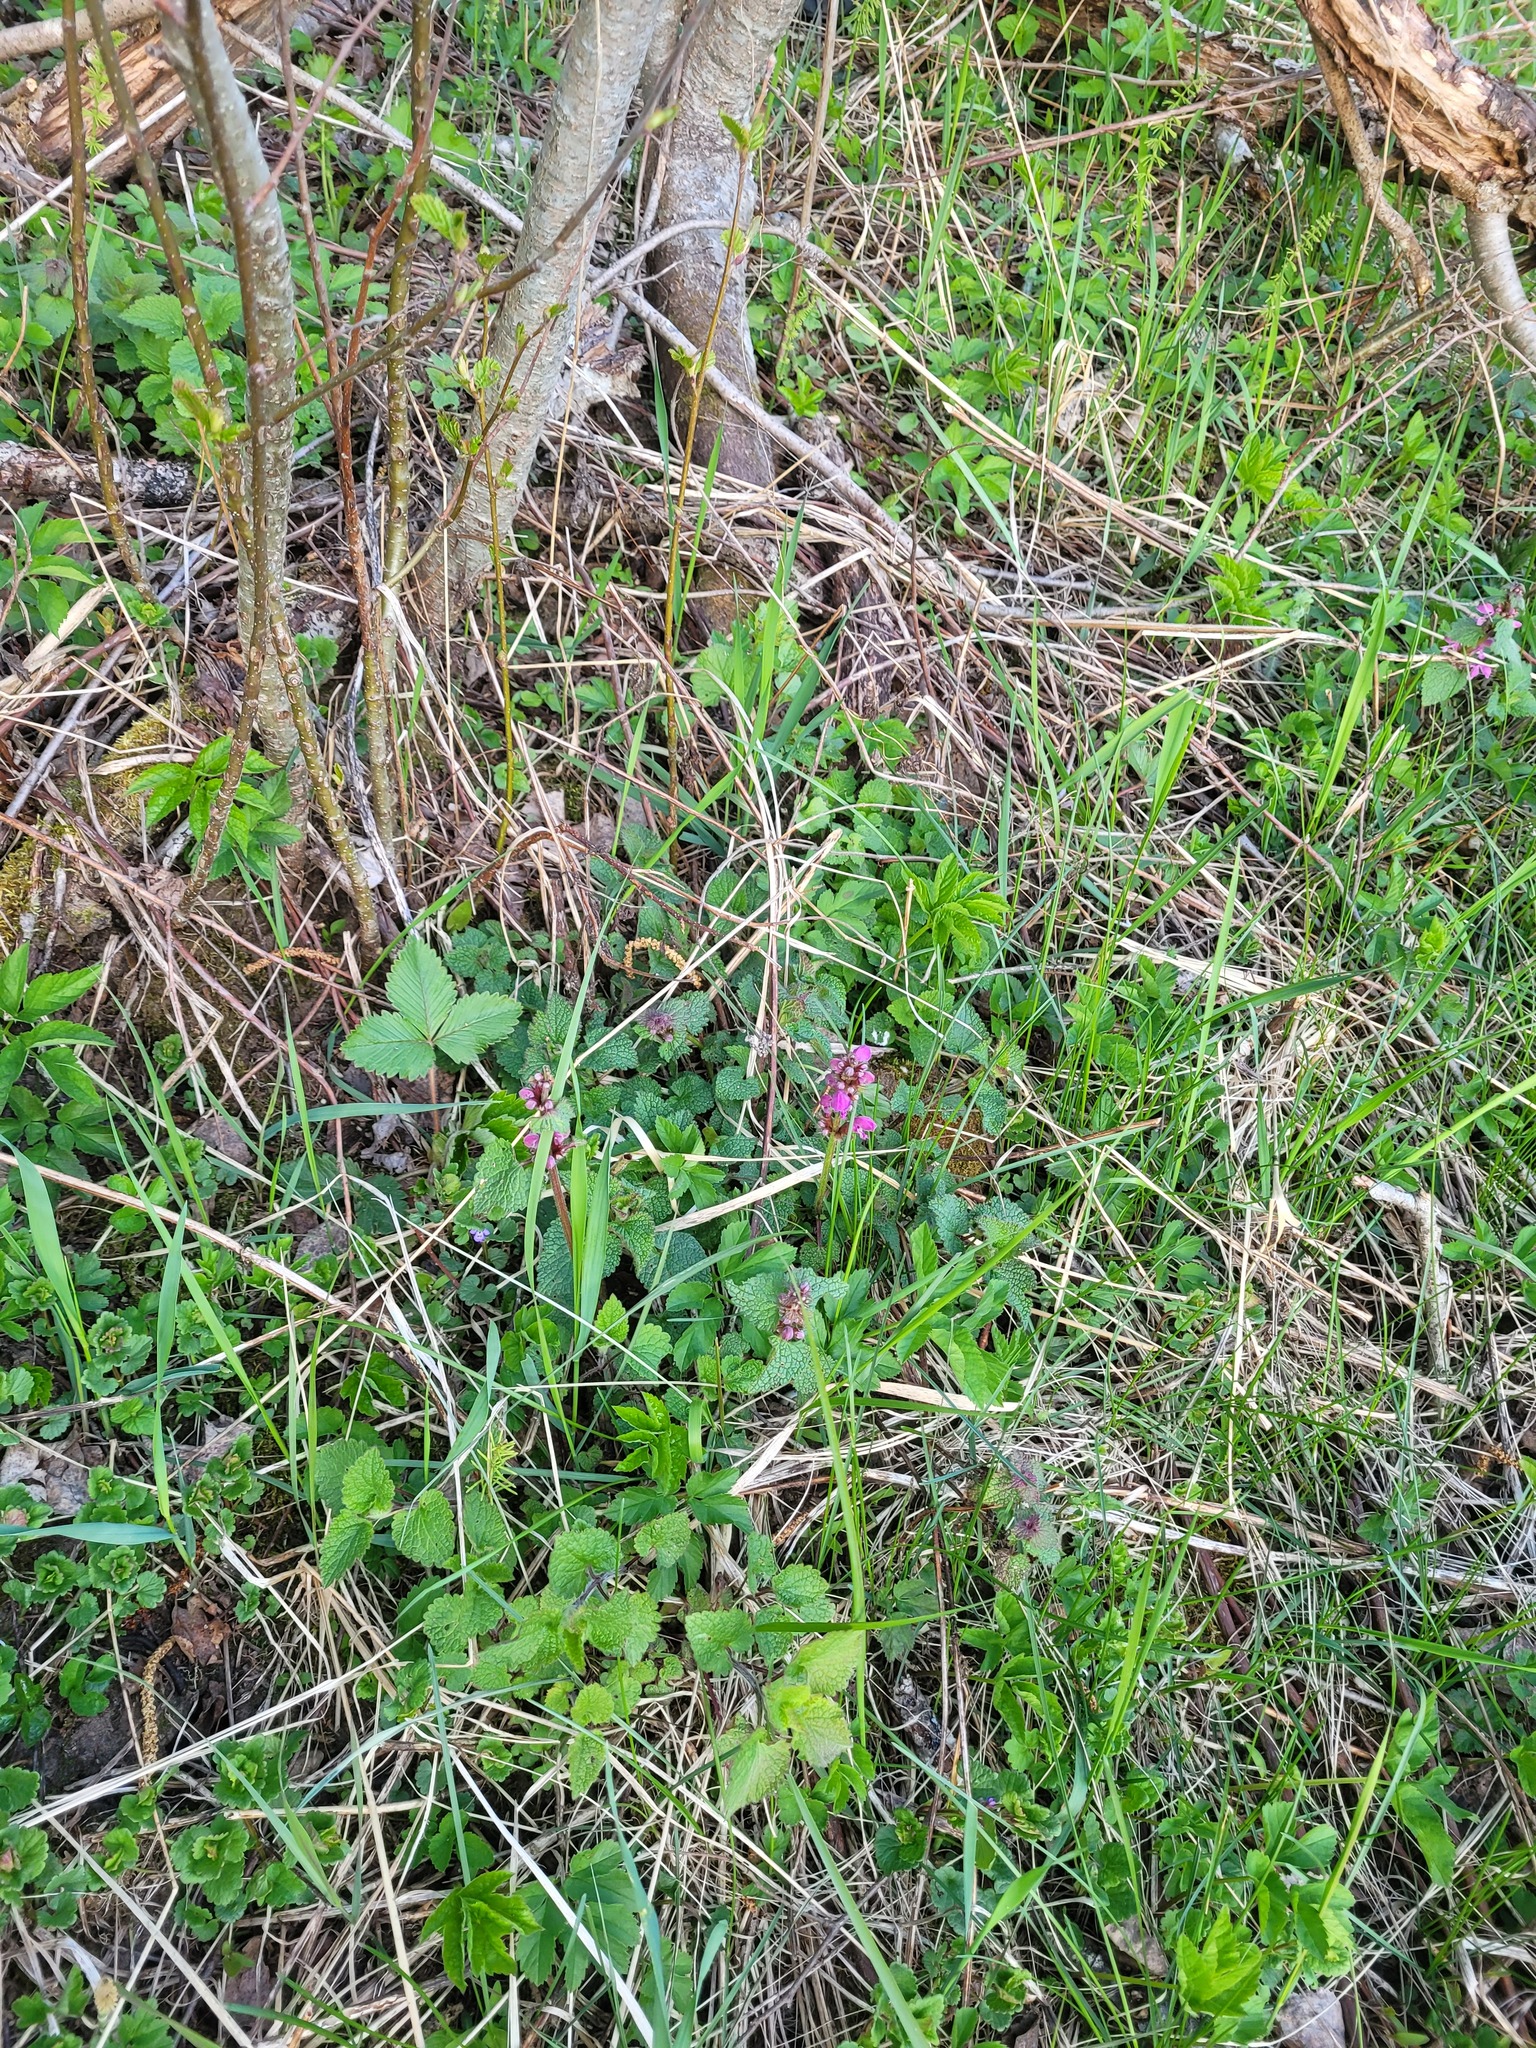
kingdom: Plantae
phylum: Tracheophyta
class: Magnoliopsida
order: Lamiales
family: Lamiaceae
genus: Lamium
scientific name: Lamium maculatum
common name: Spotted dead-nettle
